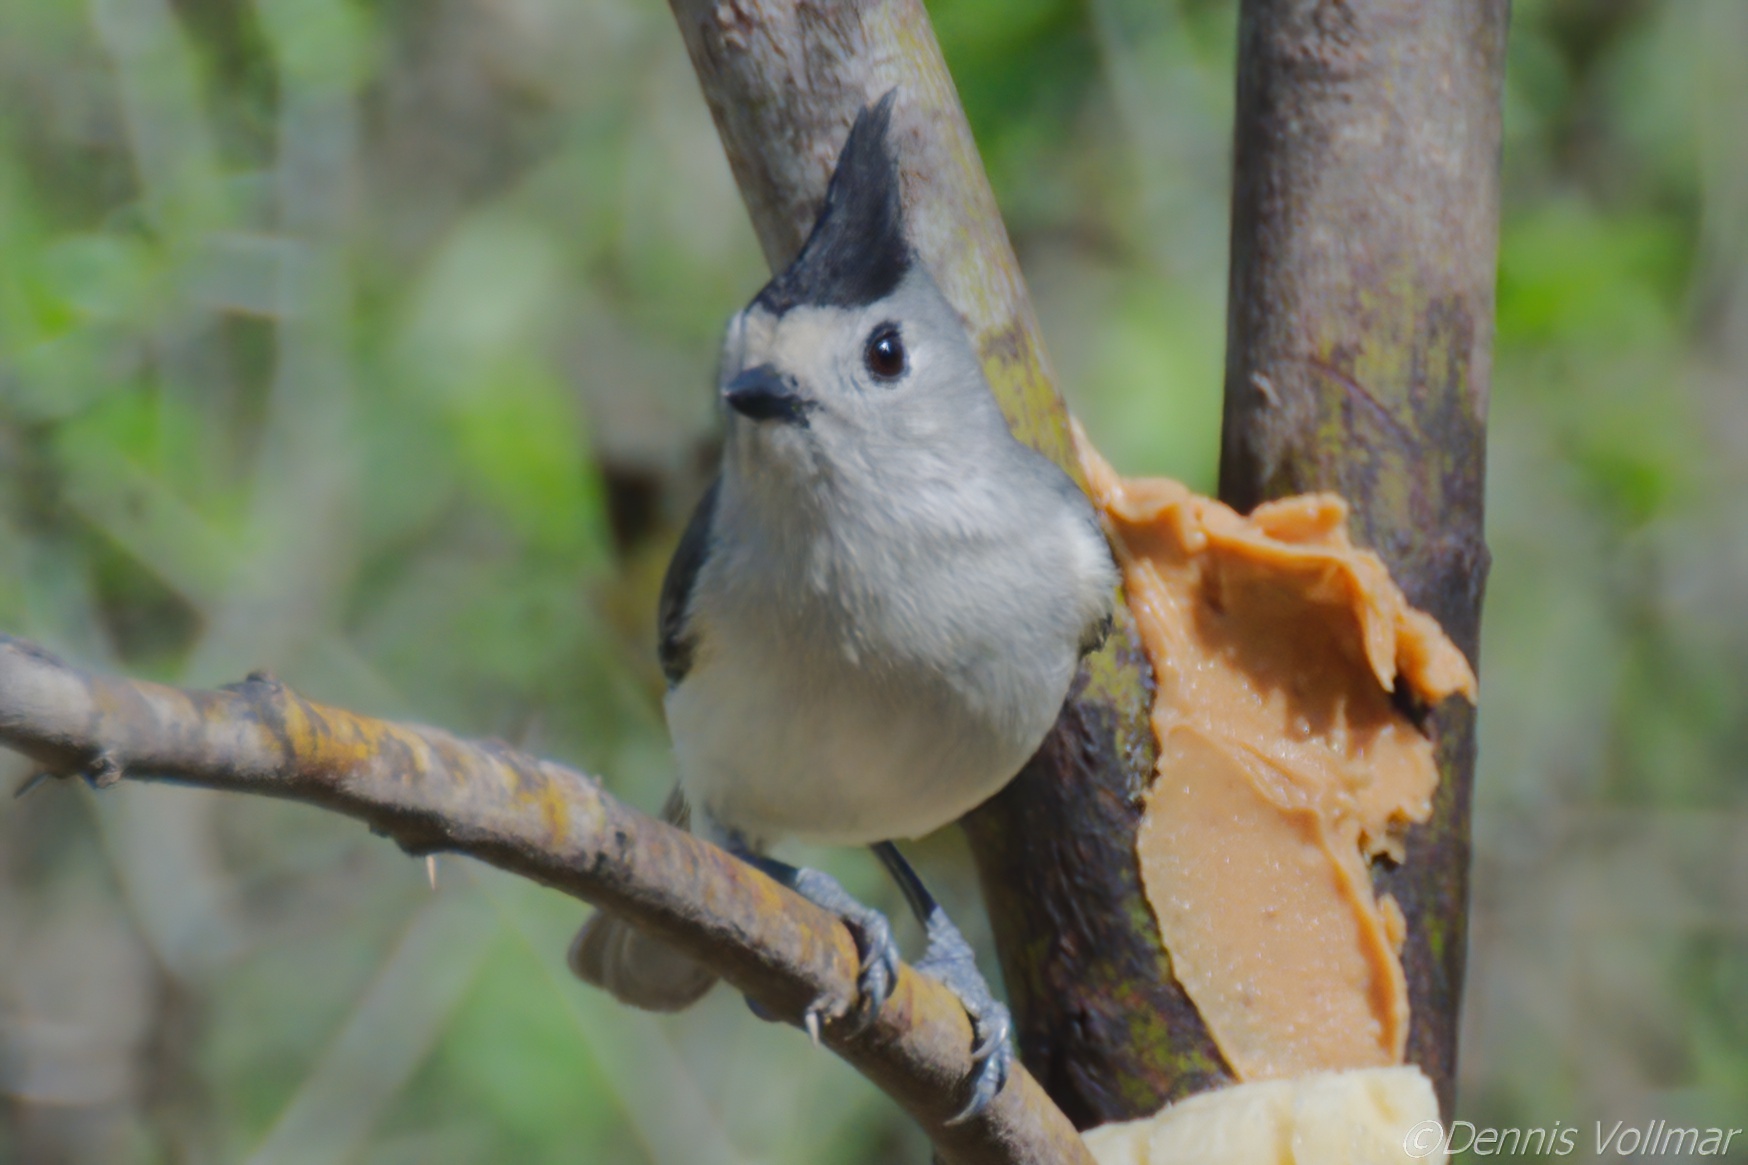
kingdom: Animalia
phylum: Chordata
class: Aves
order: Passeriformes
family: Paridae
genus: Baeolophus
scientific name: Baeolophus atricristatus
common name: Black-crested titmouse
